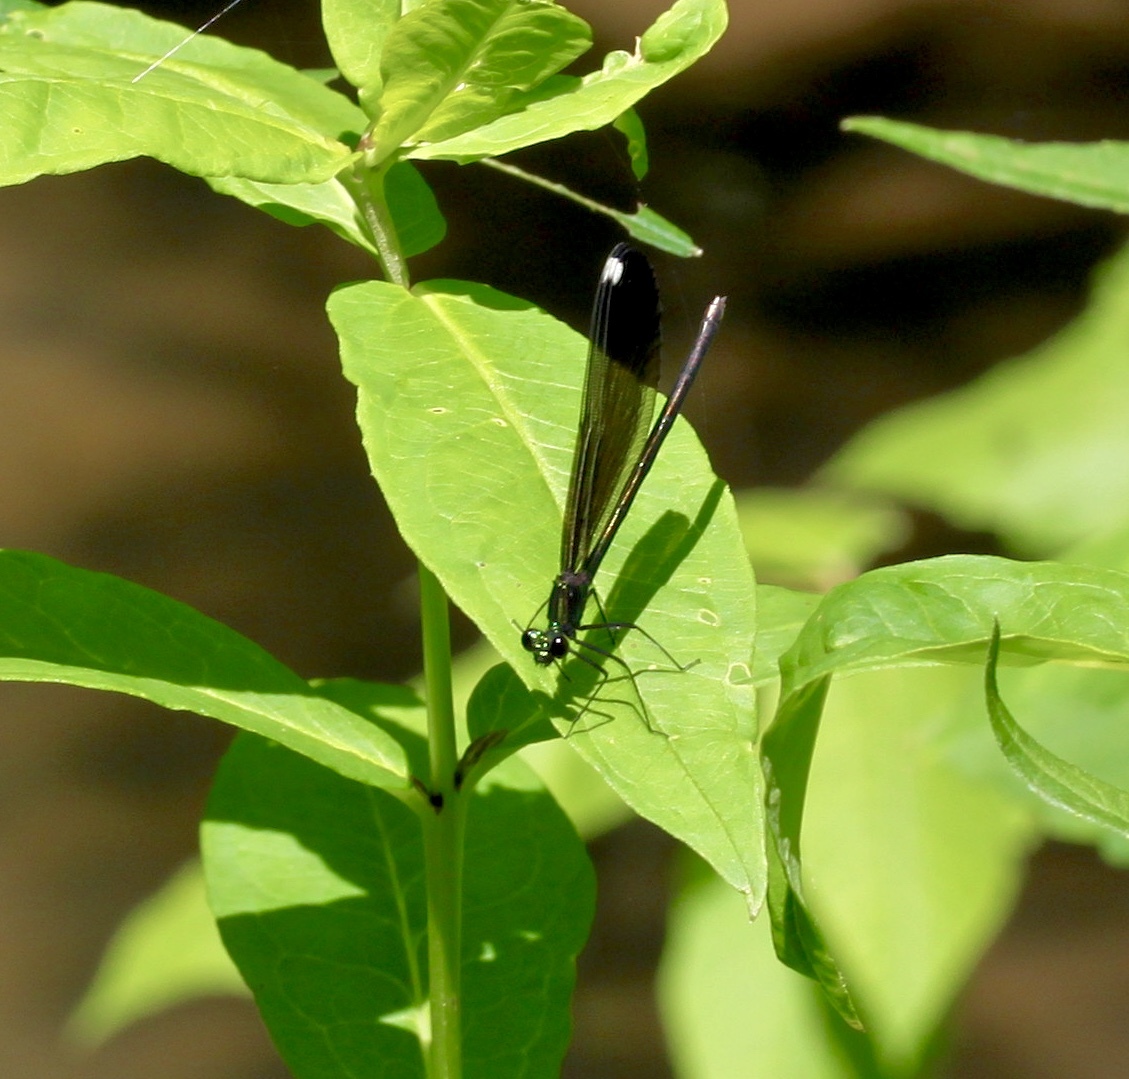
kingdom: Animalia
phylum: Arthropoda
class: Insecta
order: Odonata
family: Calopterygidae
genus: Calopteryx
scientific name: Calopteryx maculata
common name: Ebony jewelwing
